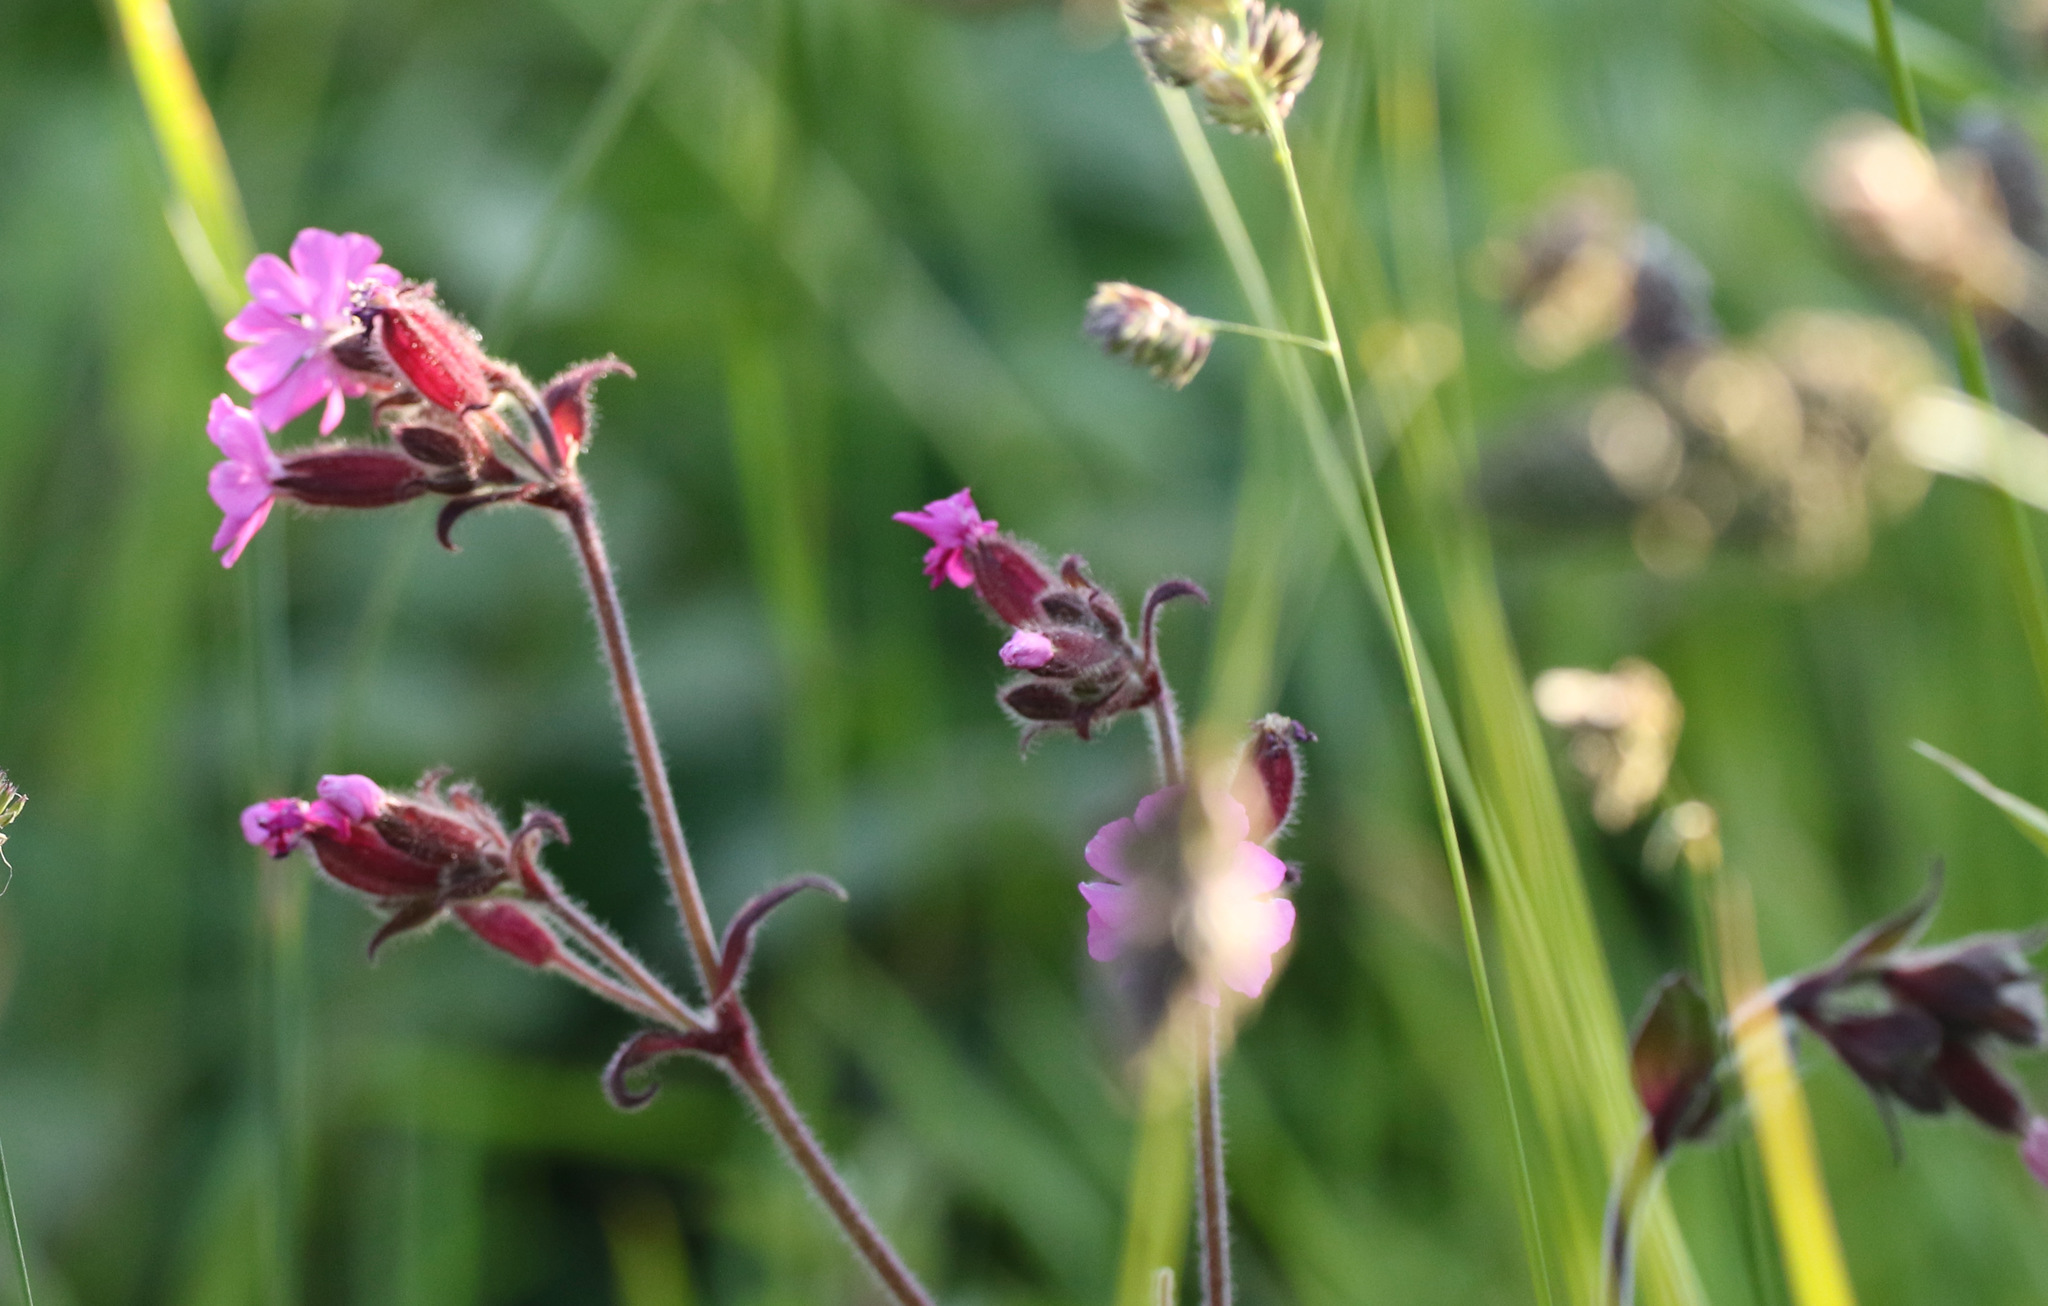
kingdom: Plantae
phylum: Tracheophyta
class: Magnoliopsida
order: Caryophyllales
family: Caryophyllaceae
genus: Silene
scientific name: Silene dioica
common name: Red campion
